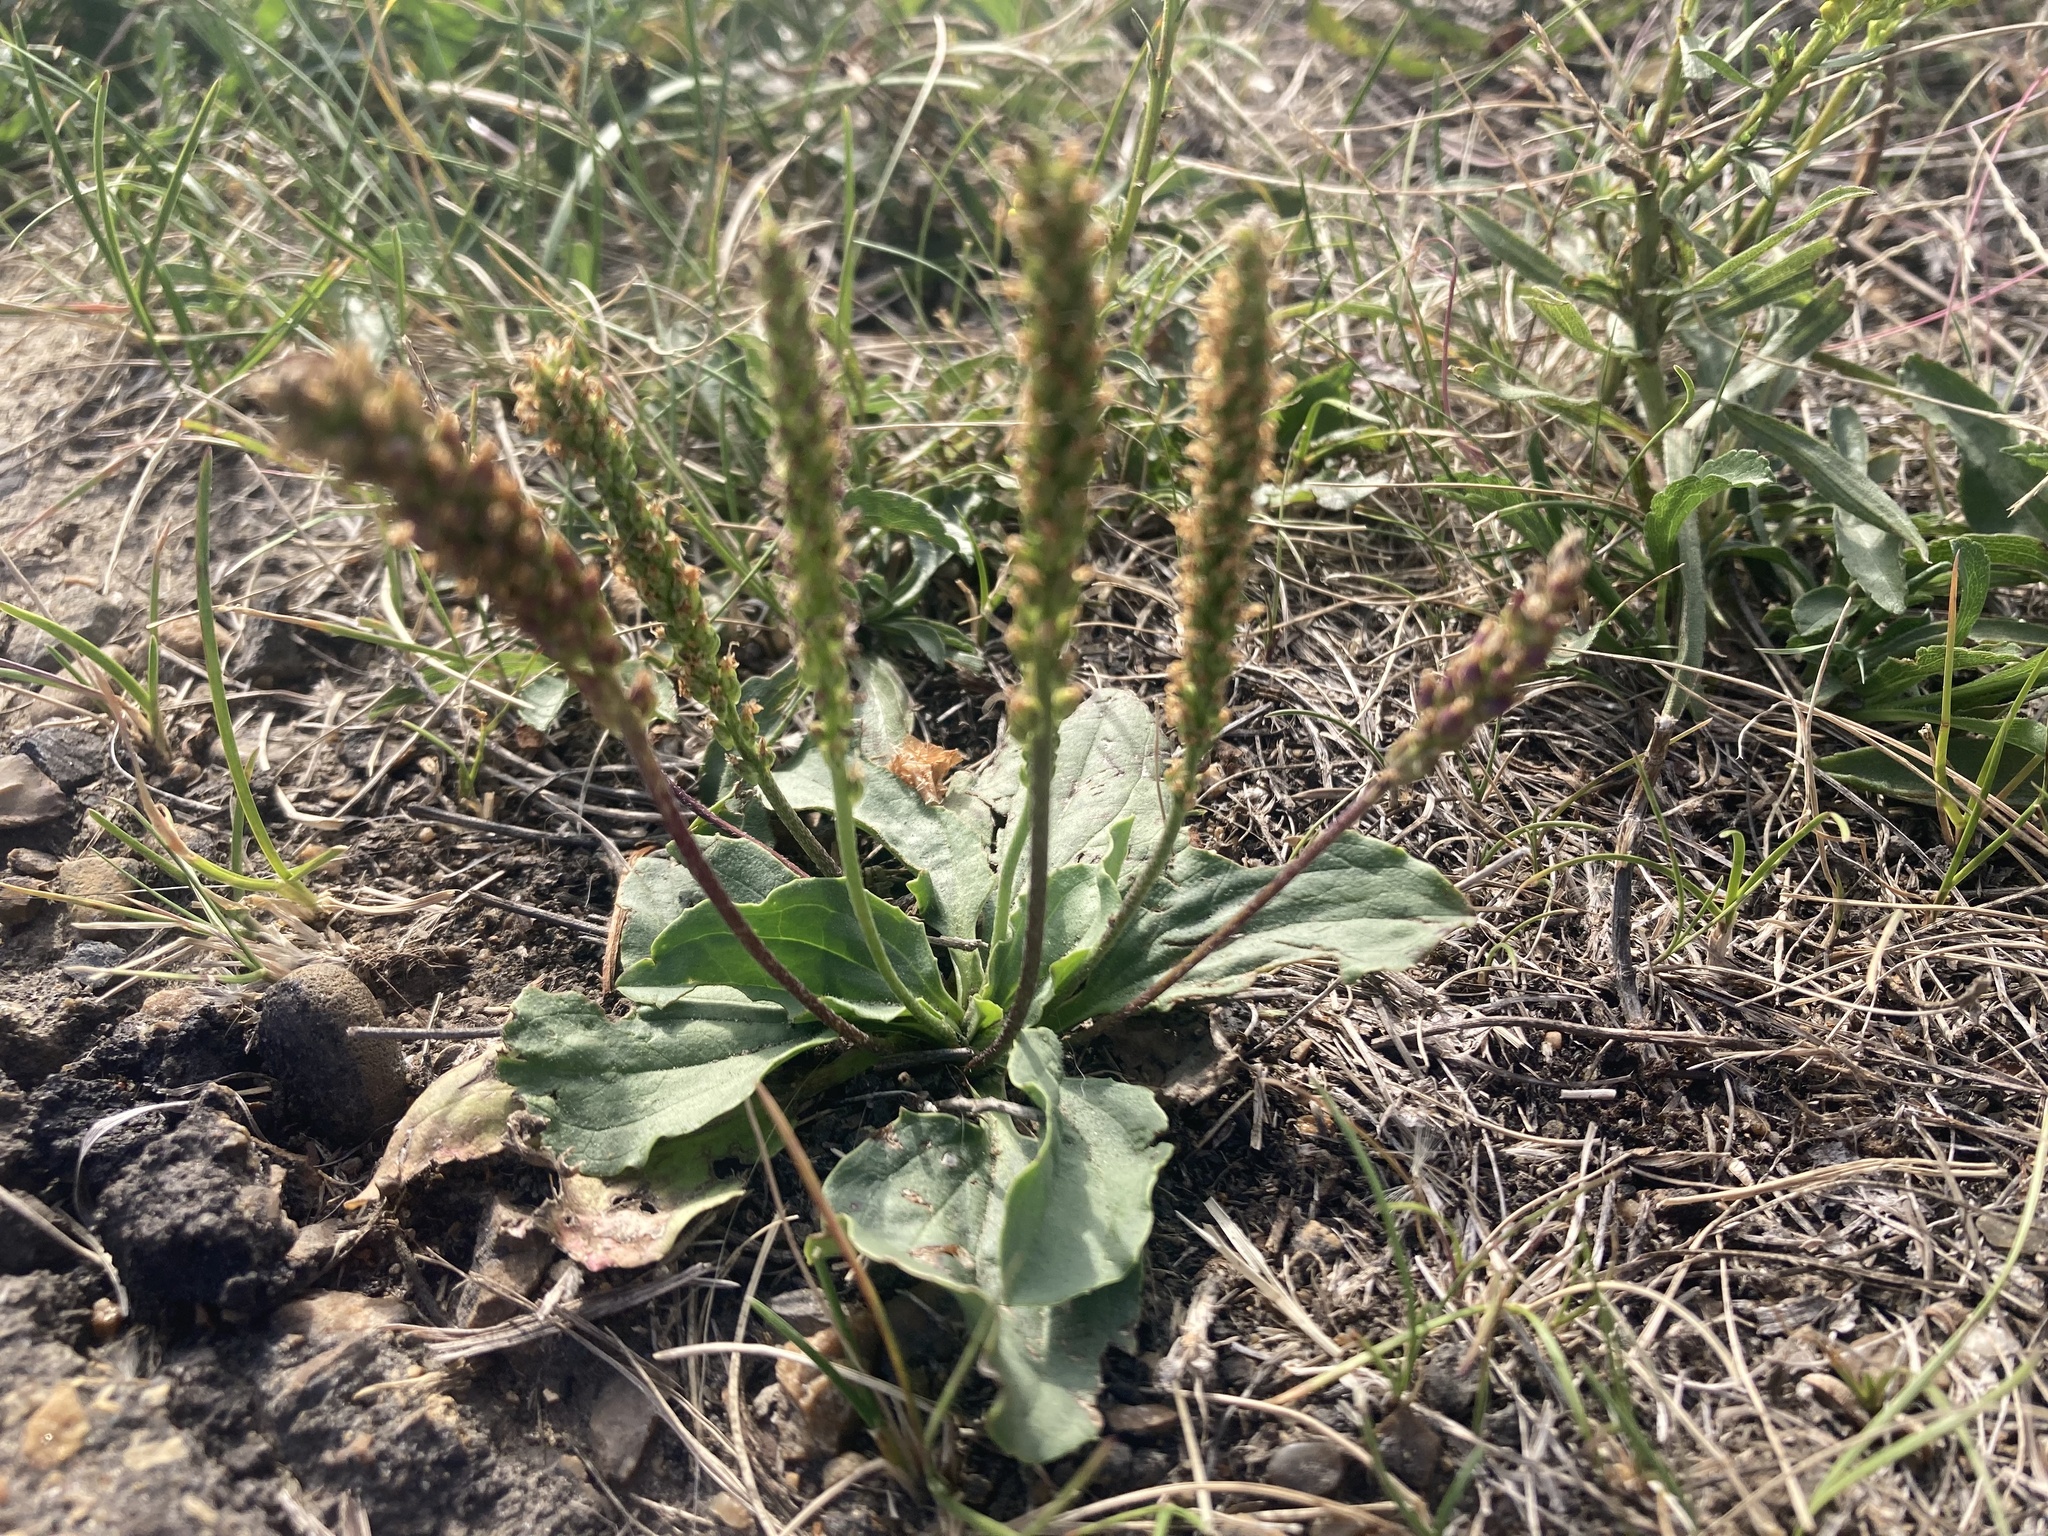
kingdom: Plantae
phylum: Tracheophyta
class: Magnoliopsida
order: Lamiales
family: Plantaginaceae
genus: Plantago
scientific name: Plantago major
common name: Common plantain
